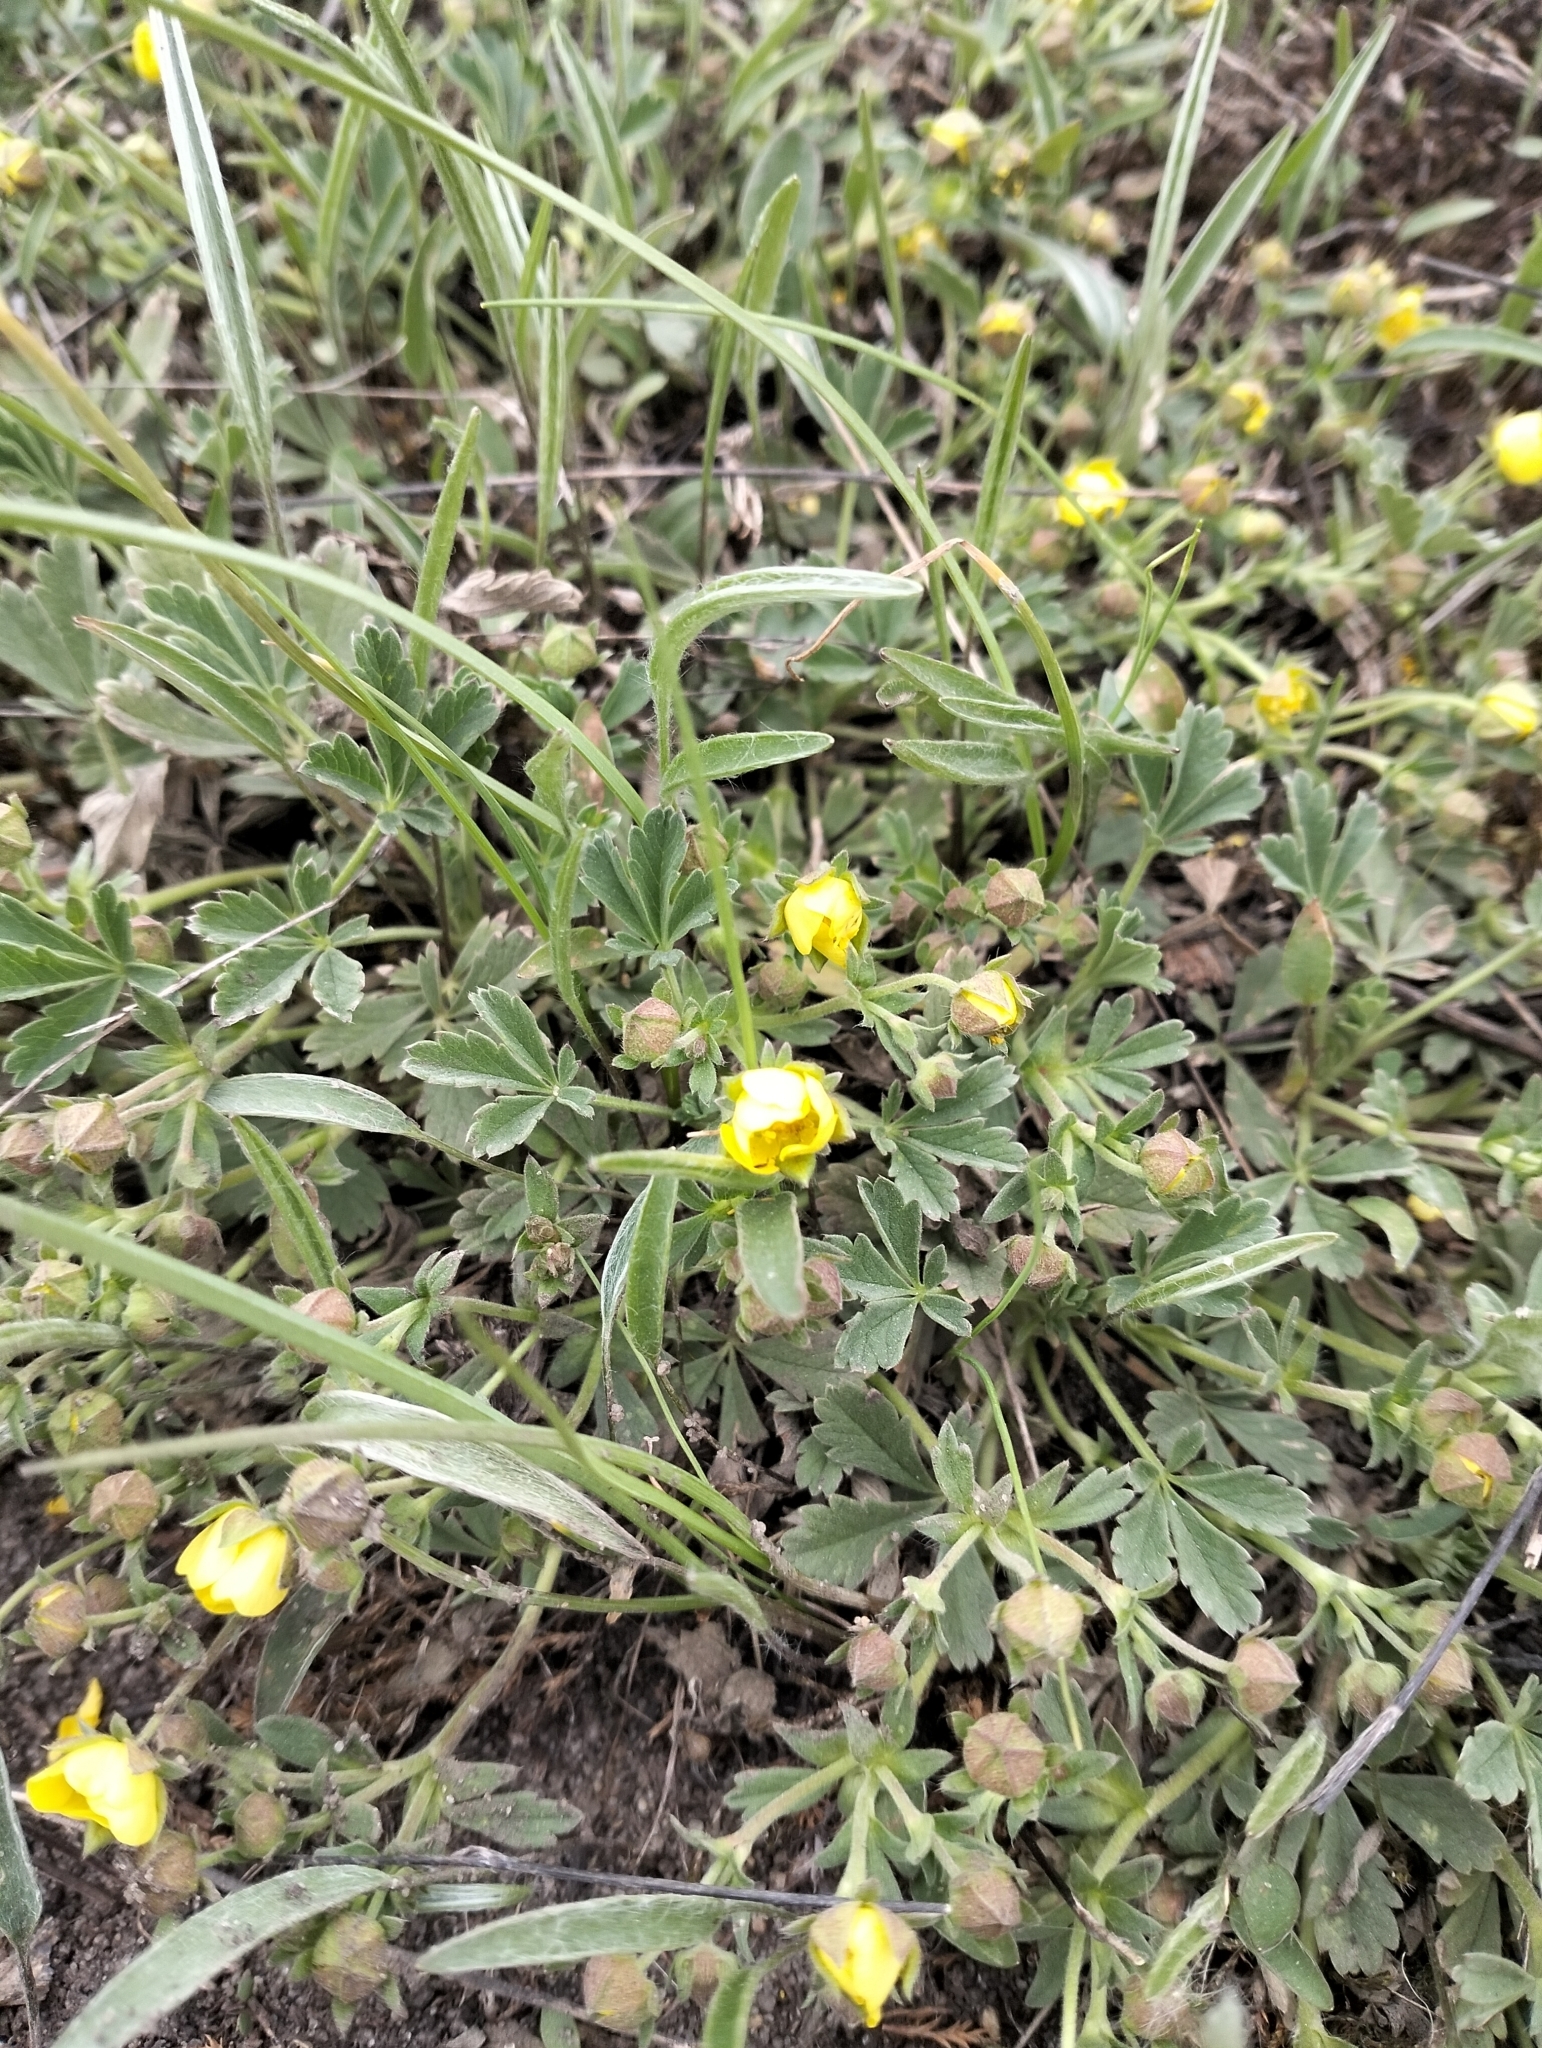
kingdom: Plantae
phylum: Tracheophyta
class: Magnoliopsida
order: Rosales
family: Rosaceae
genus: Potentilla
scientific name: Potentilla incana
